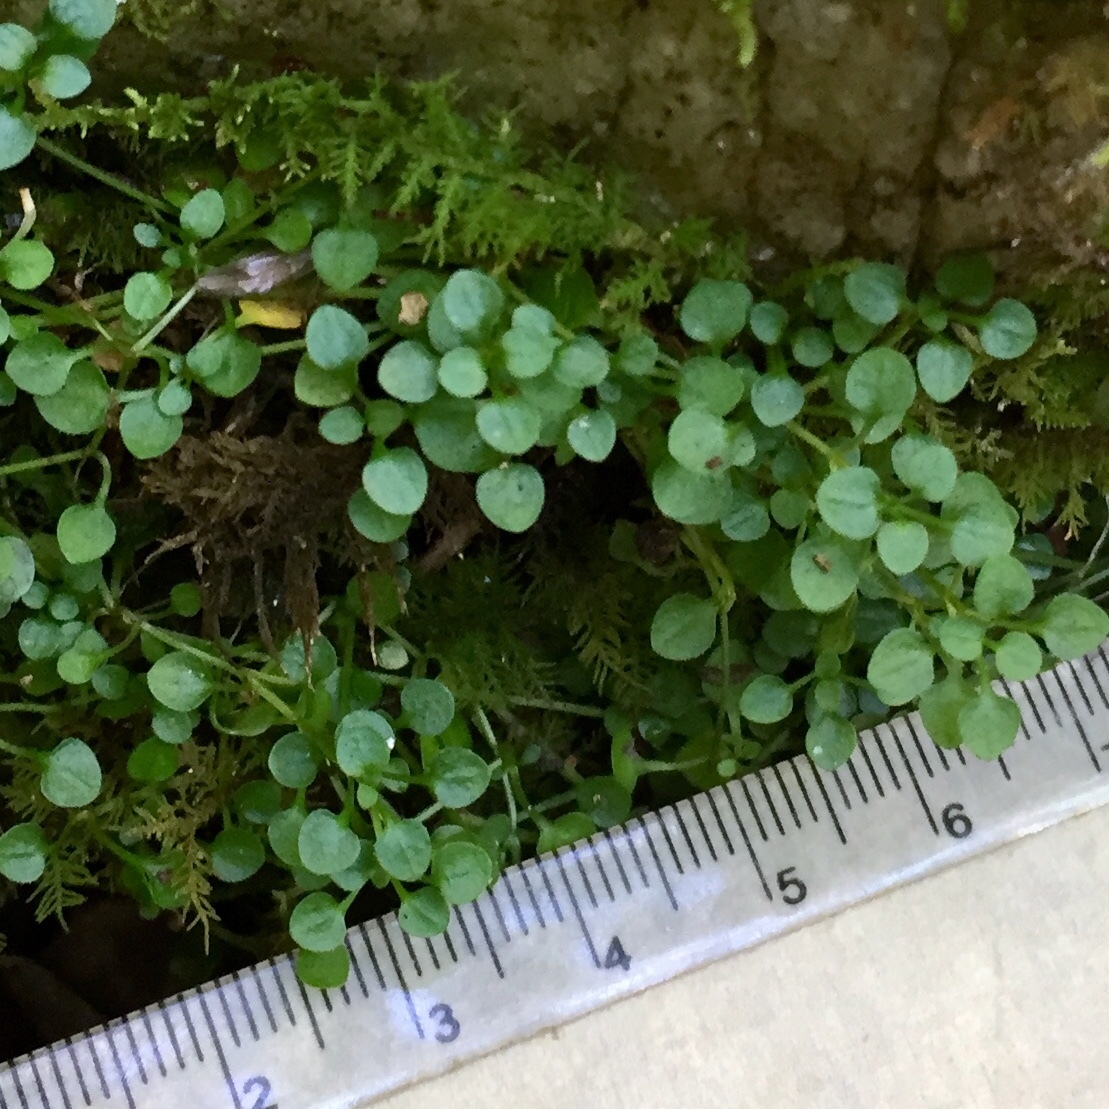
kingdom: Plantae
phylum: Tracheophyta
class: Magnoliopsida
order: Gentianales
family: Rubiaceae
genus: Houstonia
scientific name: Houstonia serpyllifolia
